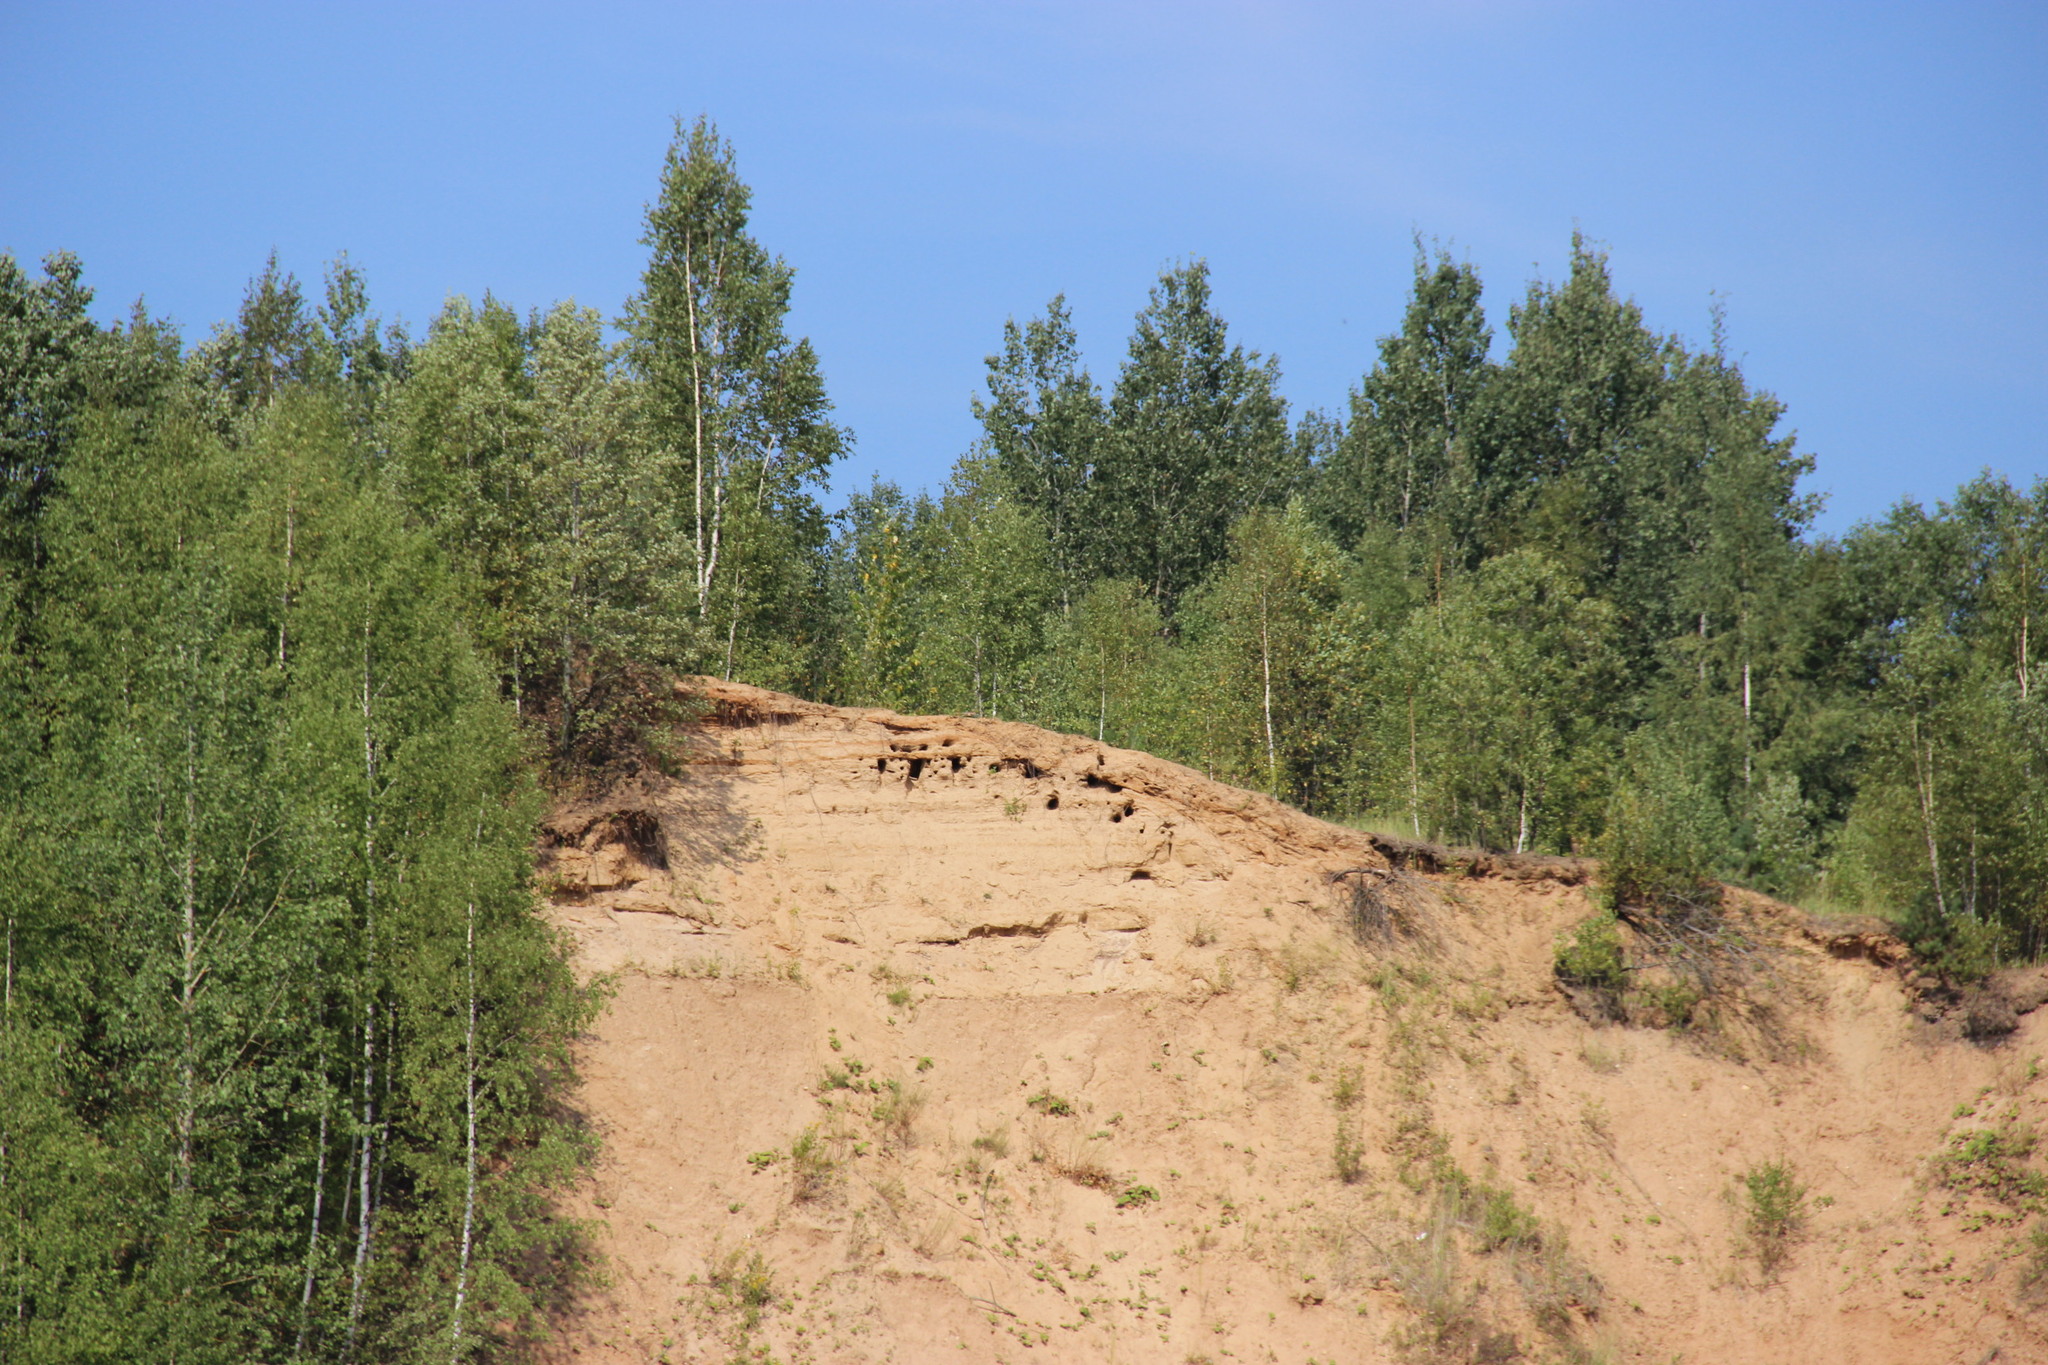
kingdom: Animalia
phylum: Chordata
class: Aves
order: Passeriformes
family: Hirundinidae
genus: Riparia
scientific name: Riparia riparia
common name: Sand martin
